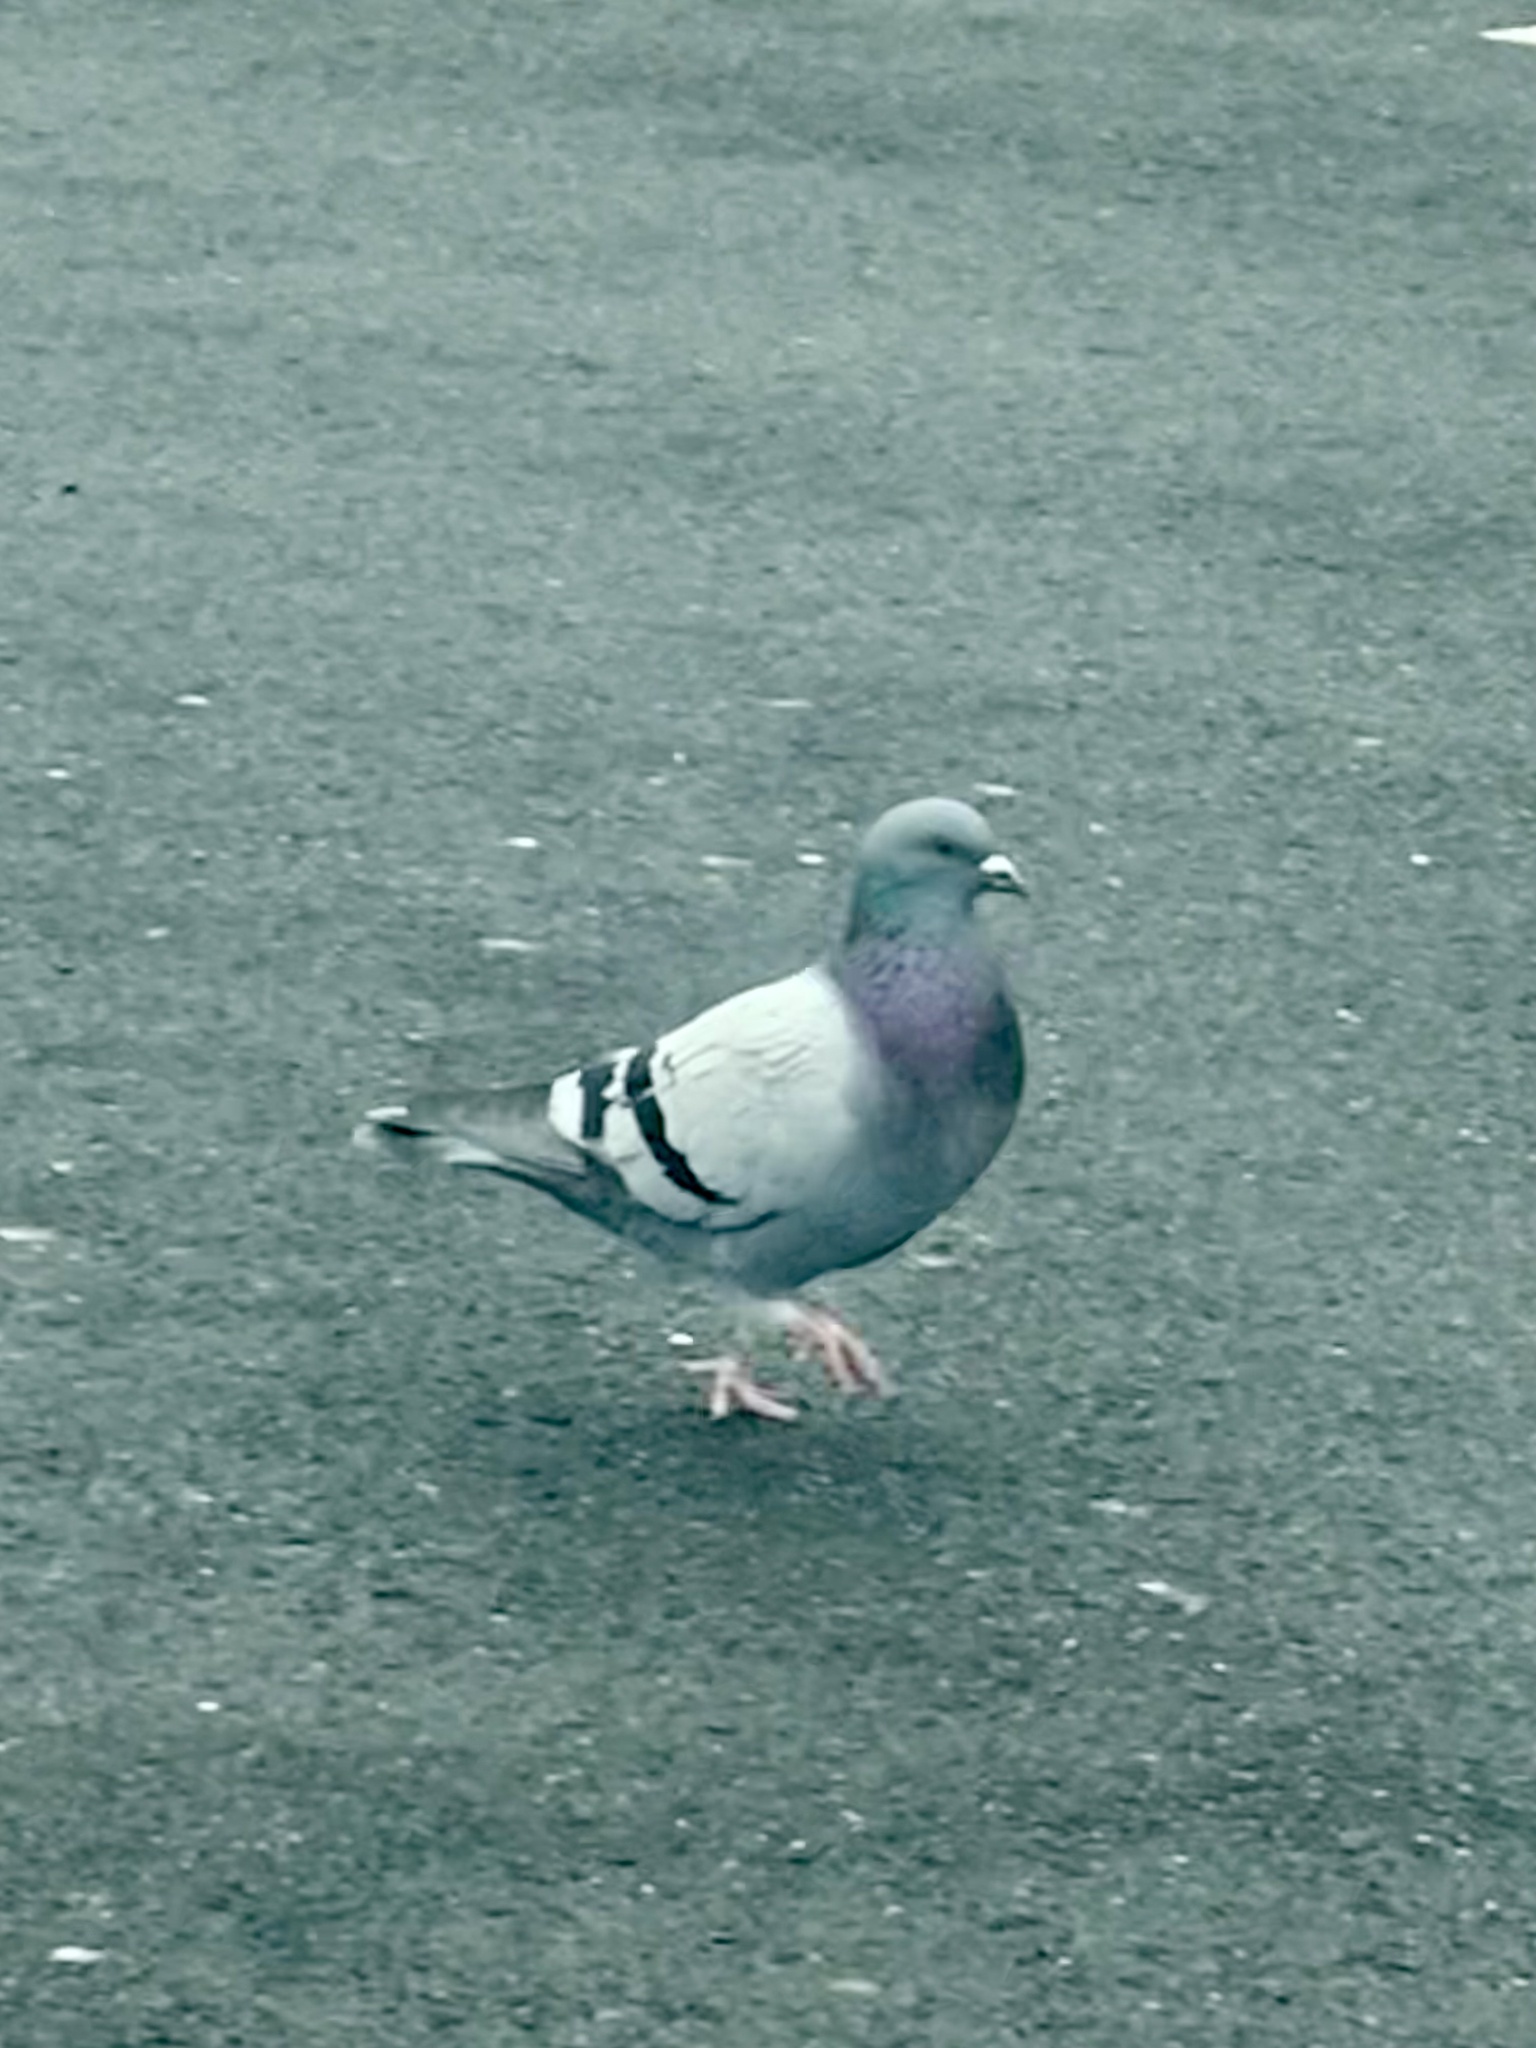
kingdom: Animalia
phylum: Chordata
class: Aves
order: Columbiformes
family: Columbidae
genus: Columba
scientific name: Columba livia
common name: Rock pigeon
